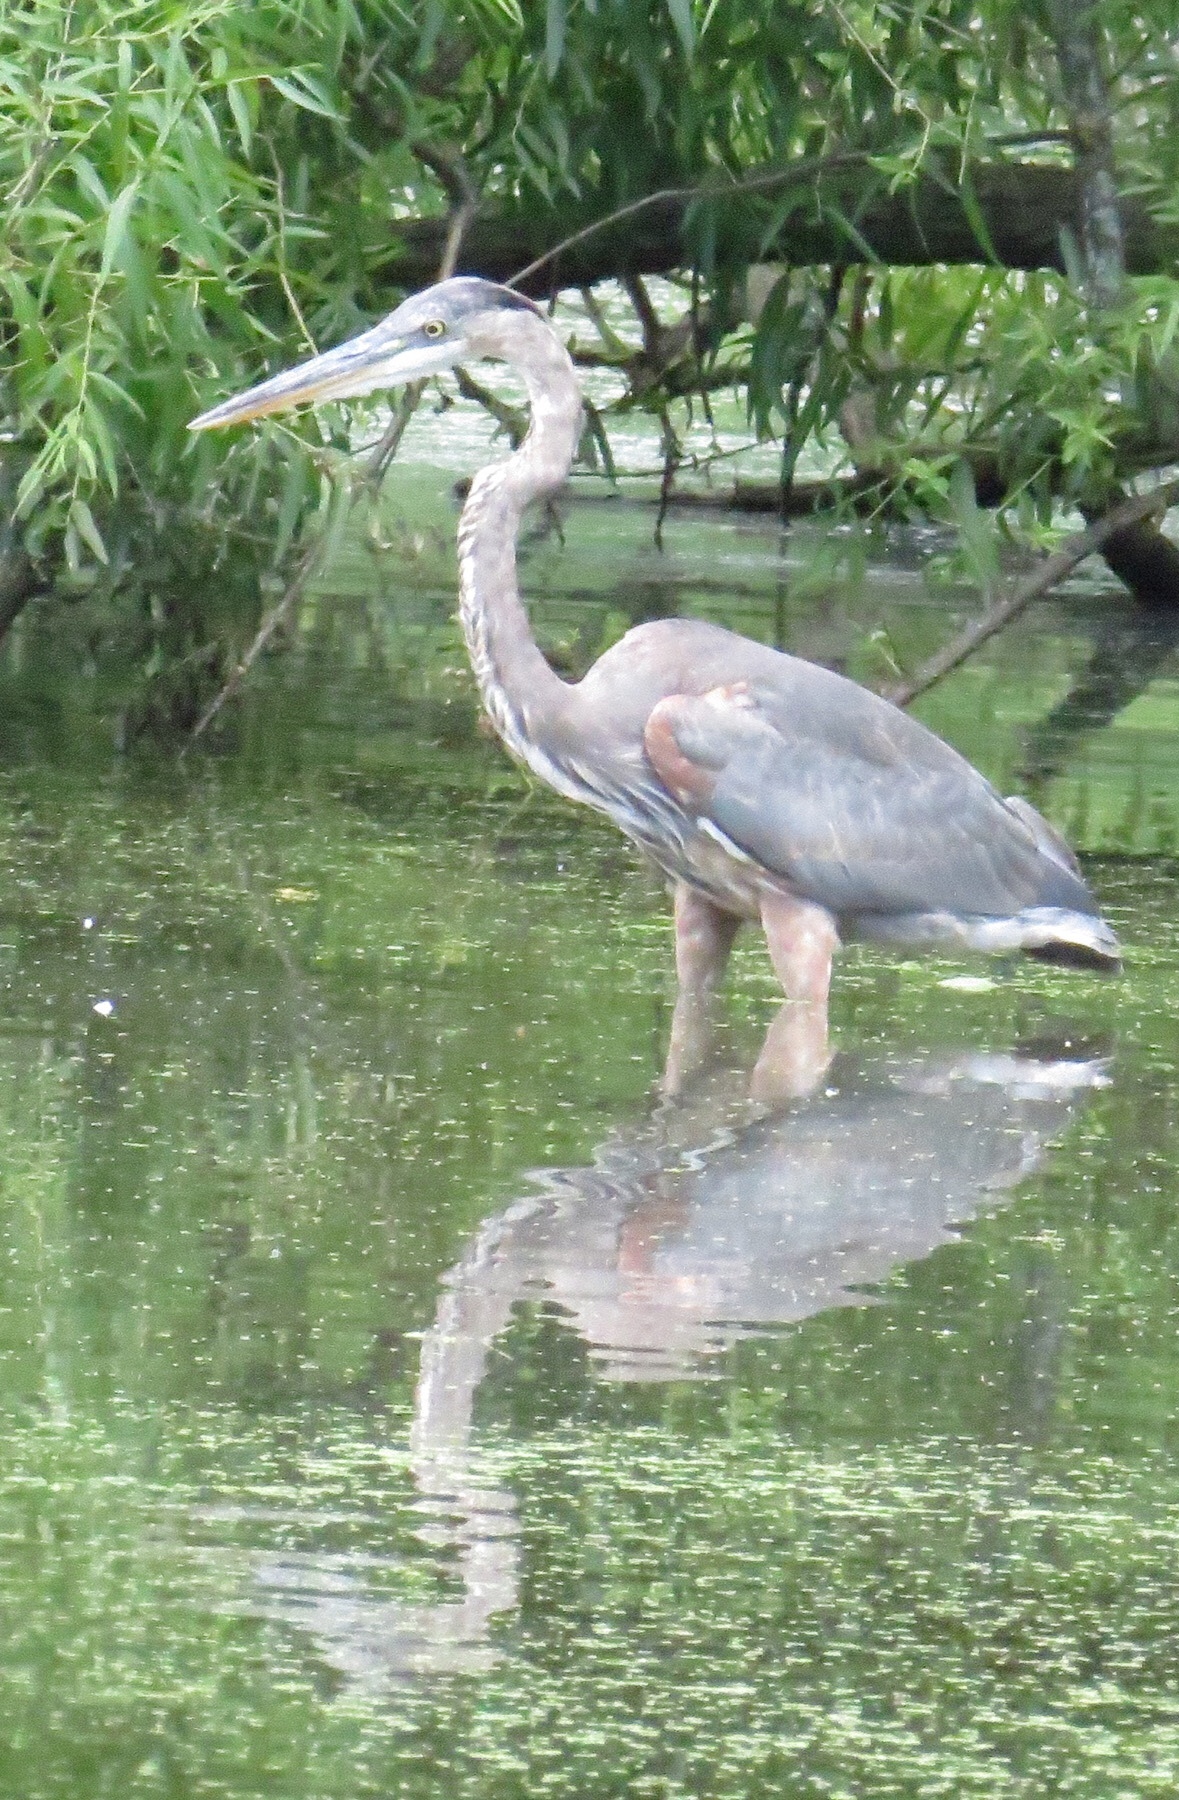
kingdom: Animalia
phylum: Chordata
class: Aves
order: Pelecaniformes
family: Ardeidae
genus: Ardea
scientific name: Ardea herodias
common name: Great blue heron
